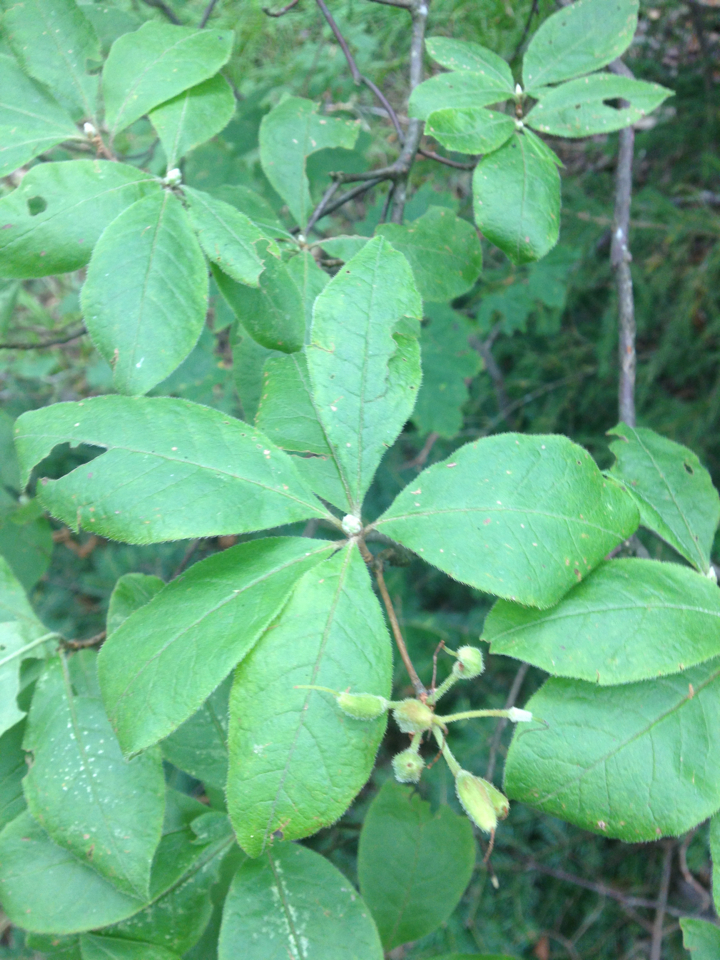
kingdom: Plantae
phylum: Tracheophyta
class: Magnoliopsida
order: Ericales
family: Ericaceae
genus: Rhododendron
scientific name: Rhododendron roseum
